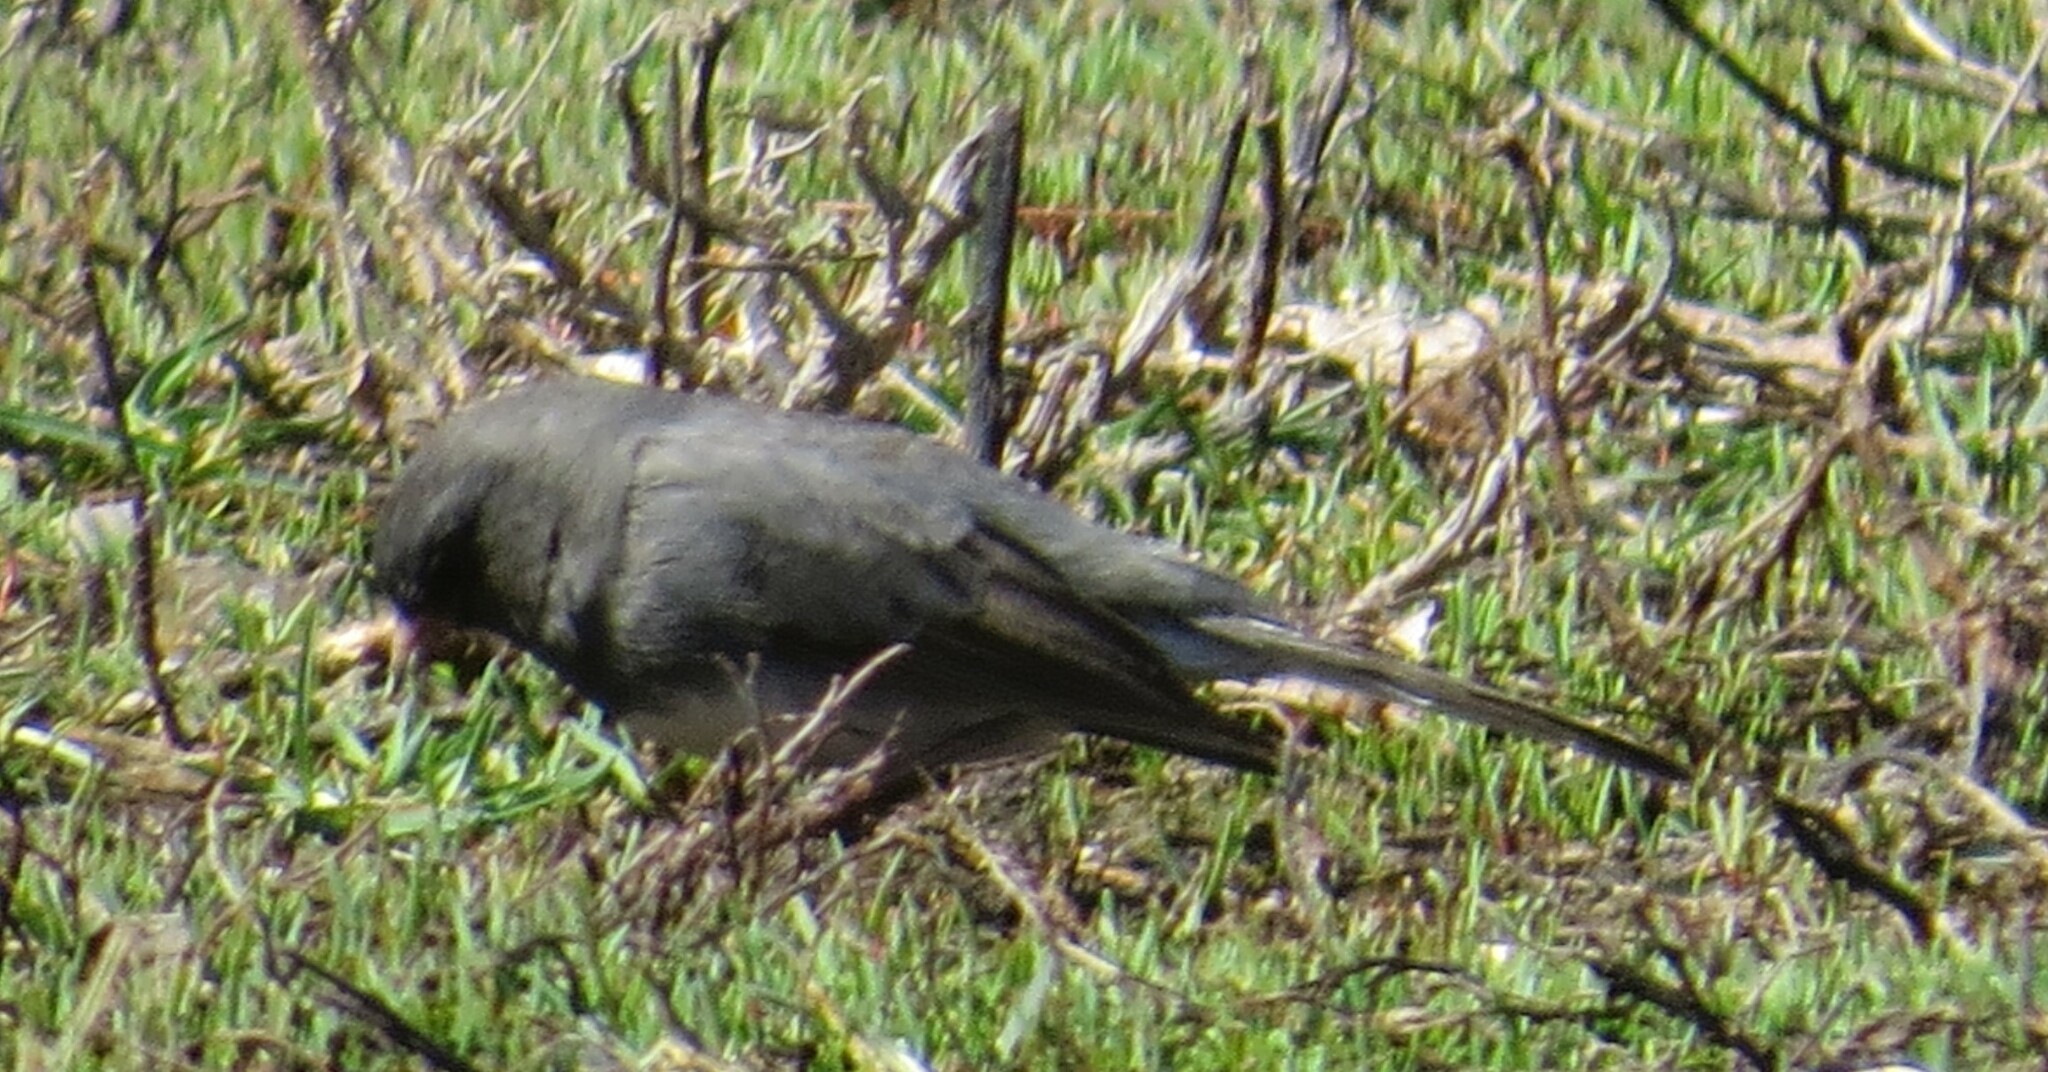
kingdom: Animalia
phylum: Chordata
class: Aves
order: Passeriformes
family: Passerellidae
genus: Junco
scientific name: Junco hyemalis
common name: Dark-eyed junco
